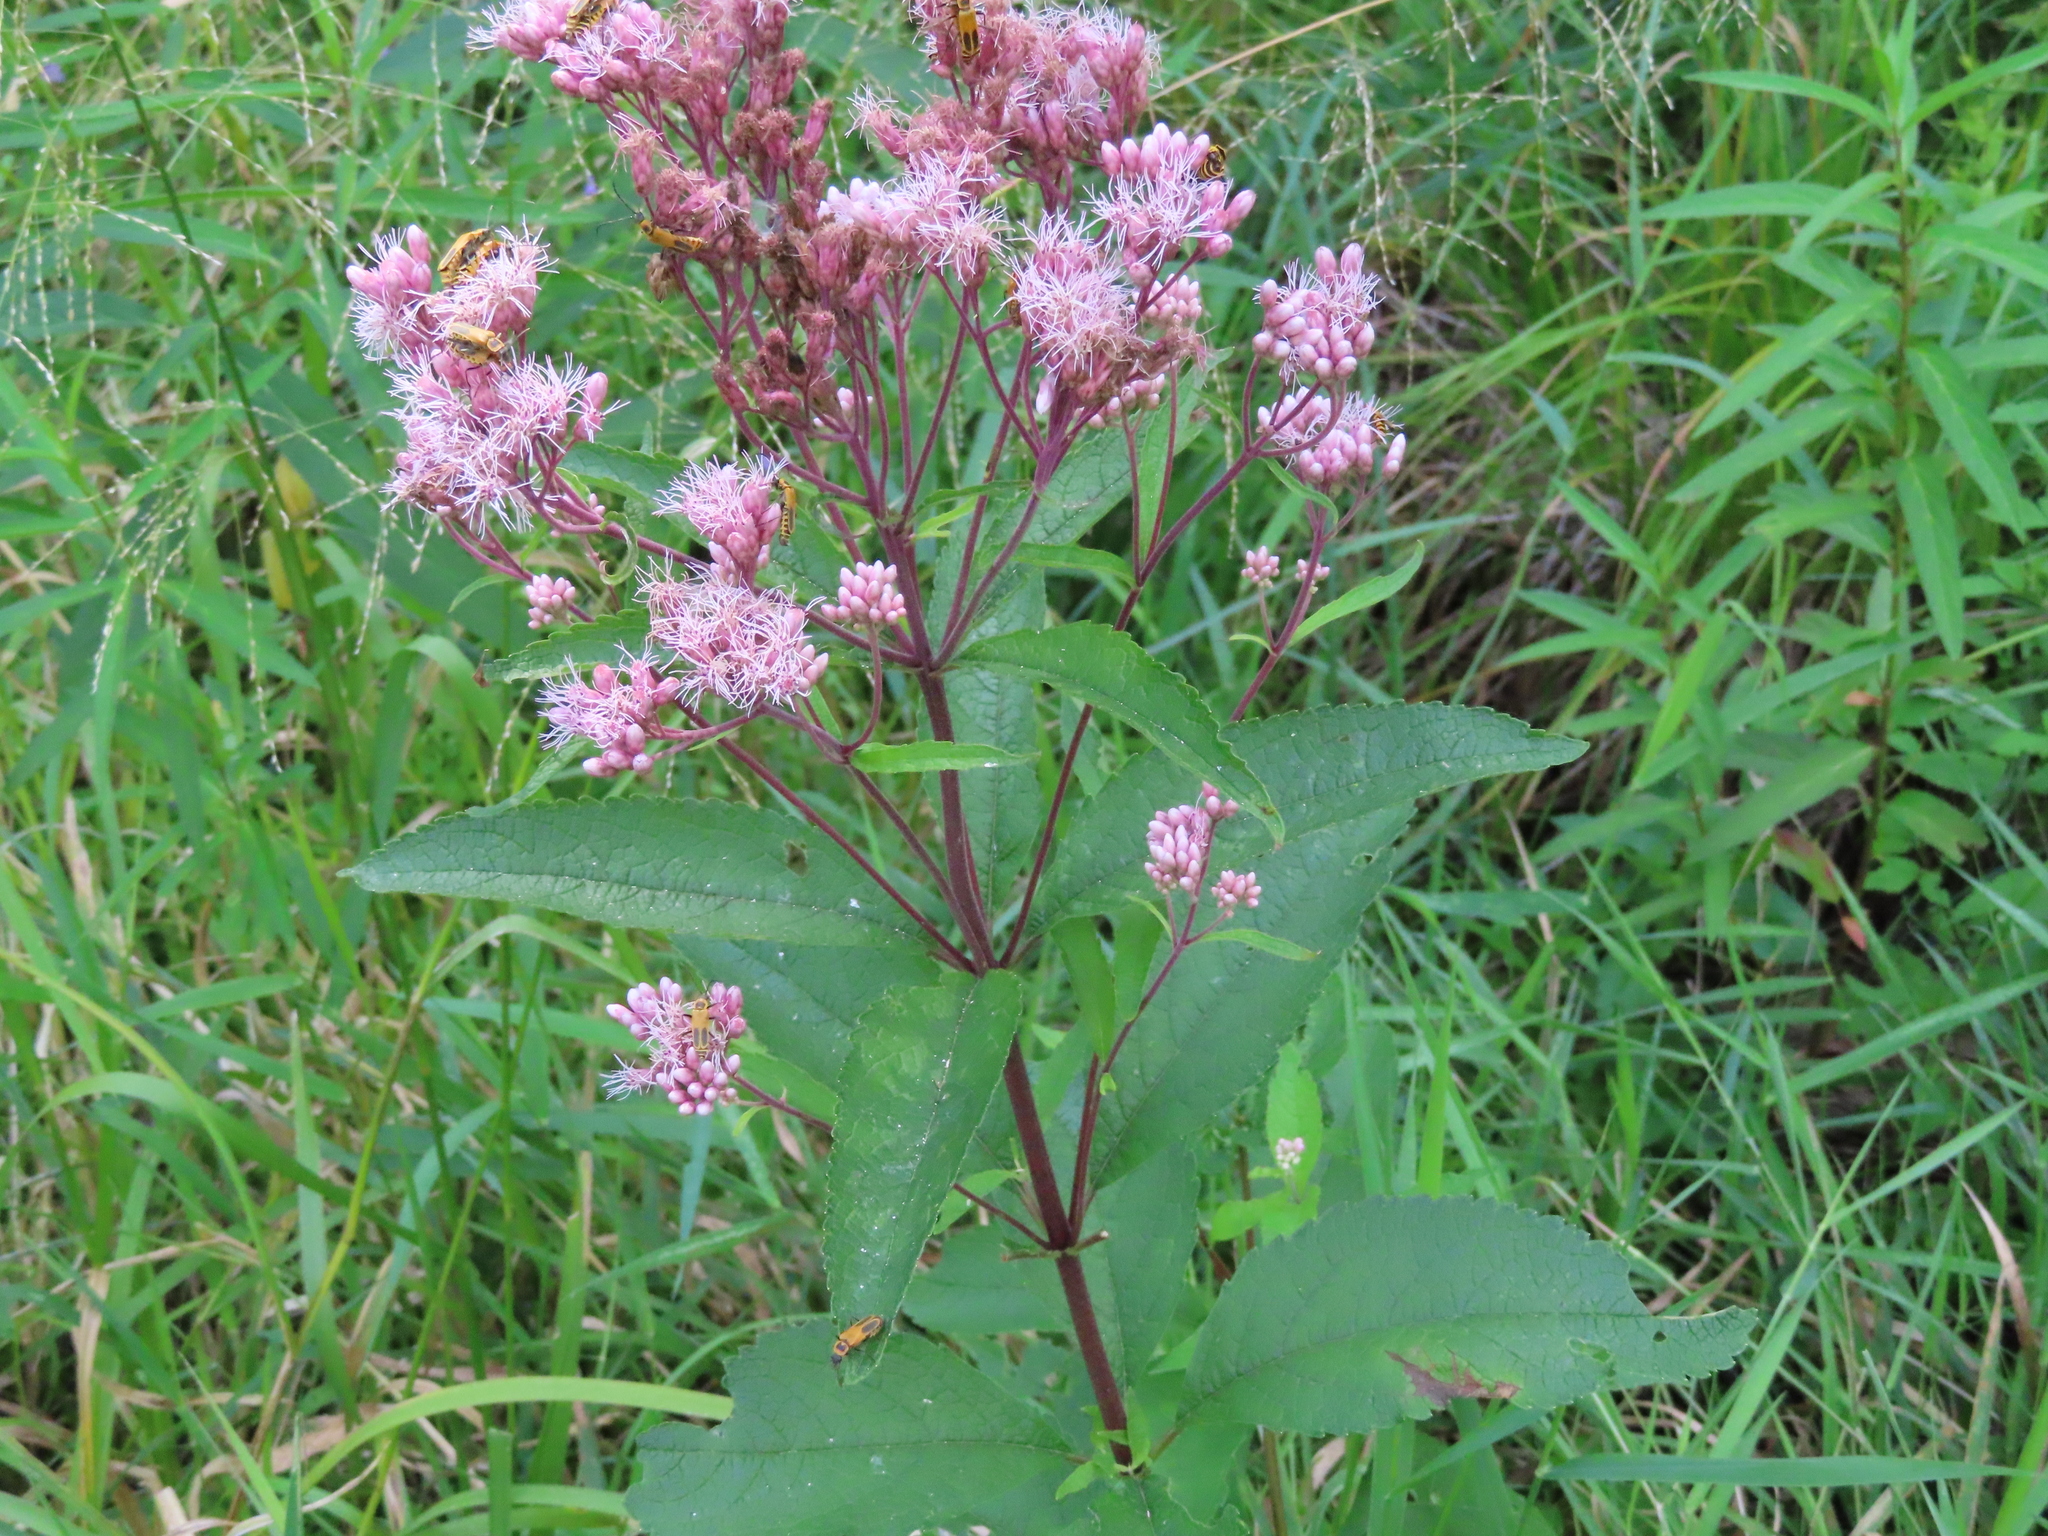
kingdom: Plantae
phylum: Tracheophyta
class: Magnoliopsida
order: Asterales
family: Asteraceae
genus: Eutrochium
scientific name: Eutrochium maculatum
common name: Spotted joe pye weed
